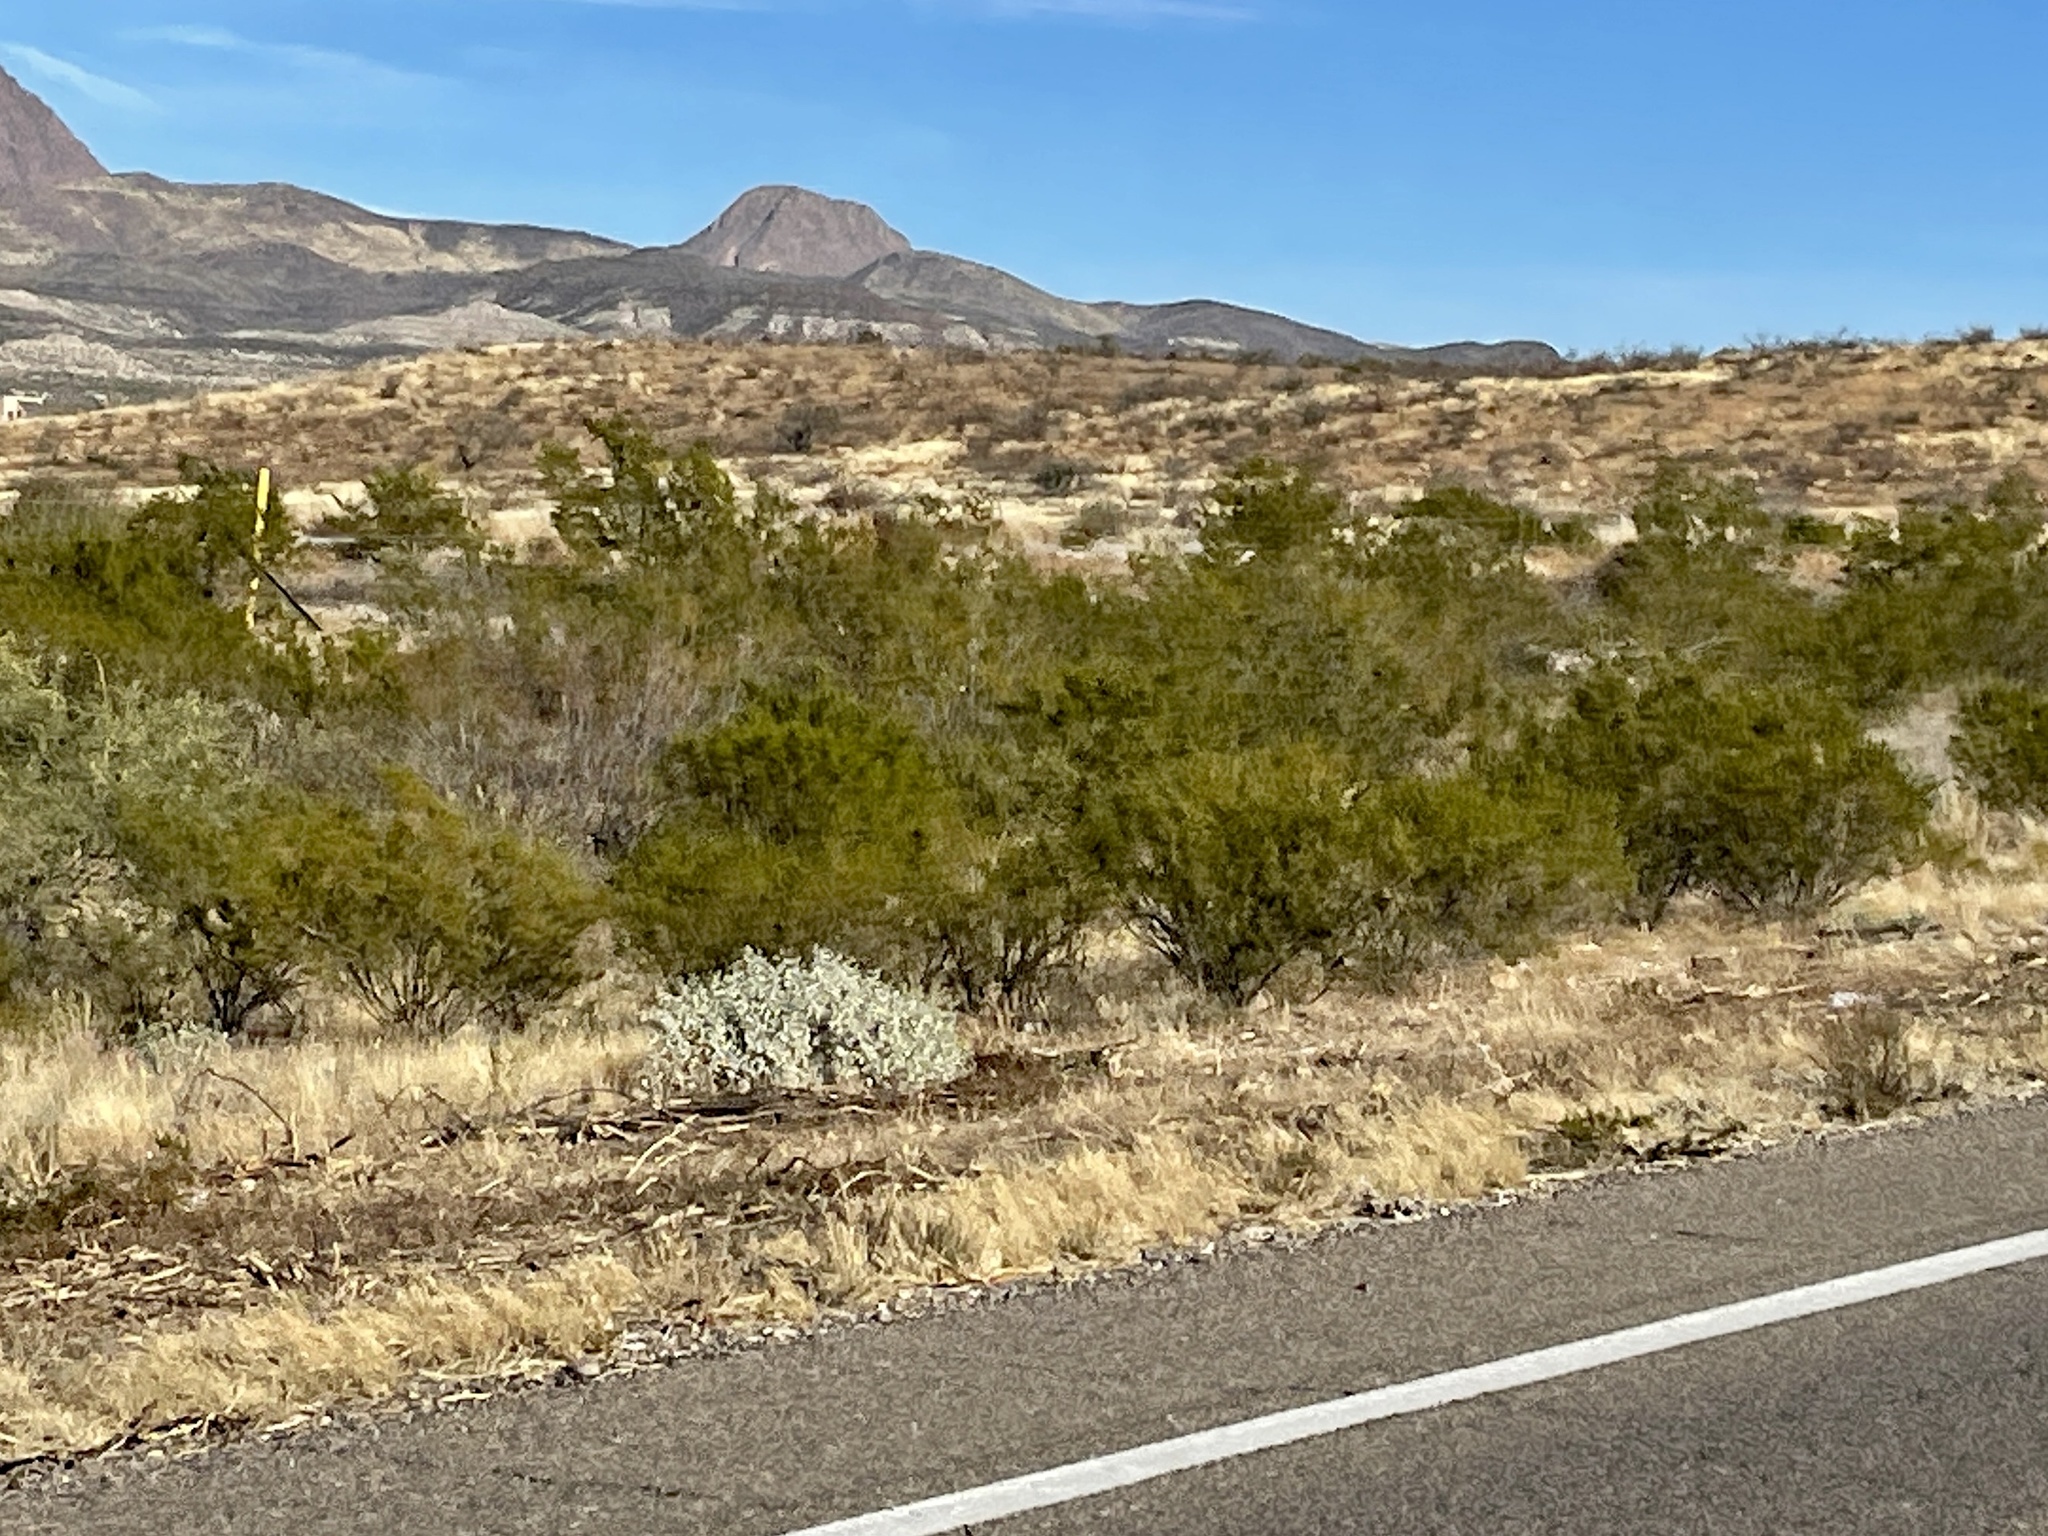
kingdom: Plantae
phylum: Tracheophyta
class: Magnoliopsida
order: Zygophyllales
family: Zygophyllaceae
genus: Larrea
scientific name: Larrea tridentata
